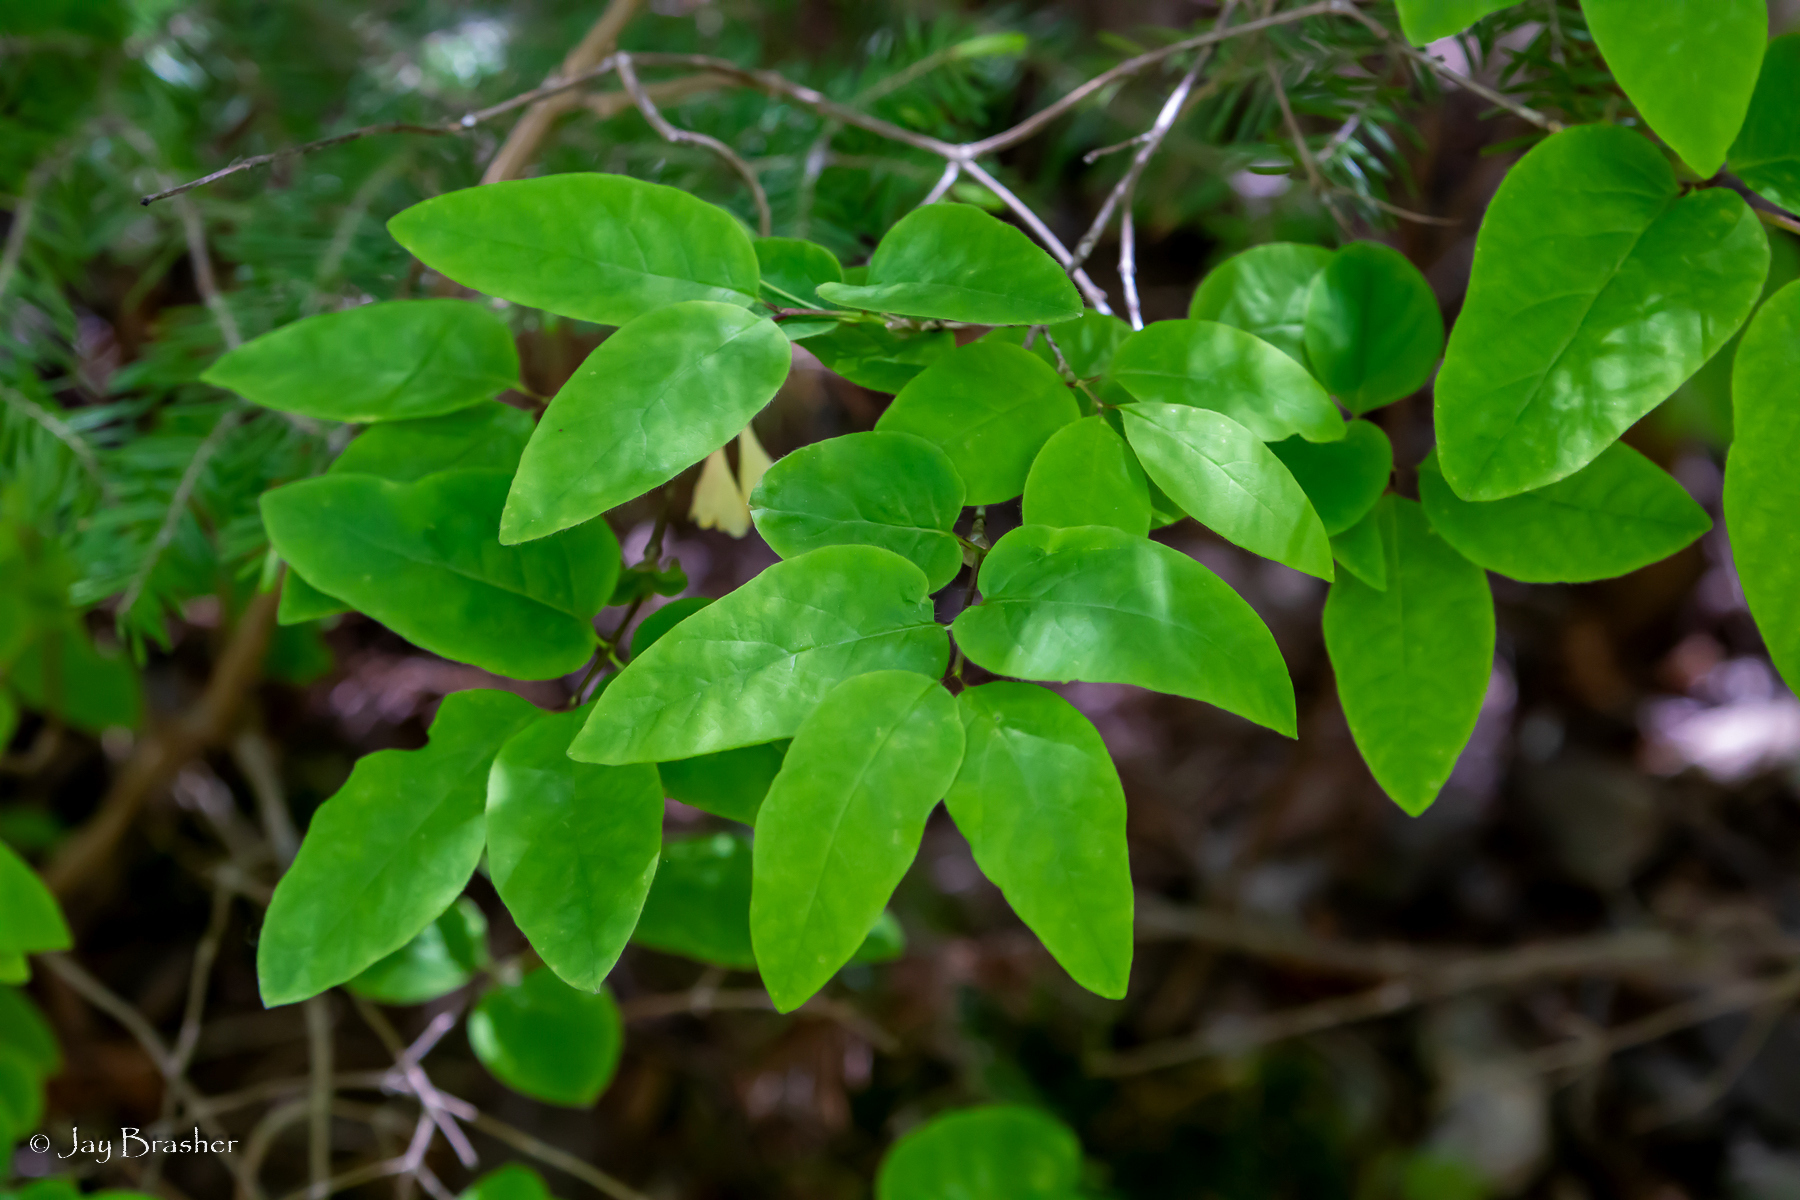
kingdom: Plantae
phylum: Tracheophyta
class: Magnoliopsida
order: Dipsacales
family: Caprifoliaceae
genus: Lonicera
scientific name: Lonicera canadensis
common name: American fly-honeysuckle
